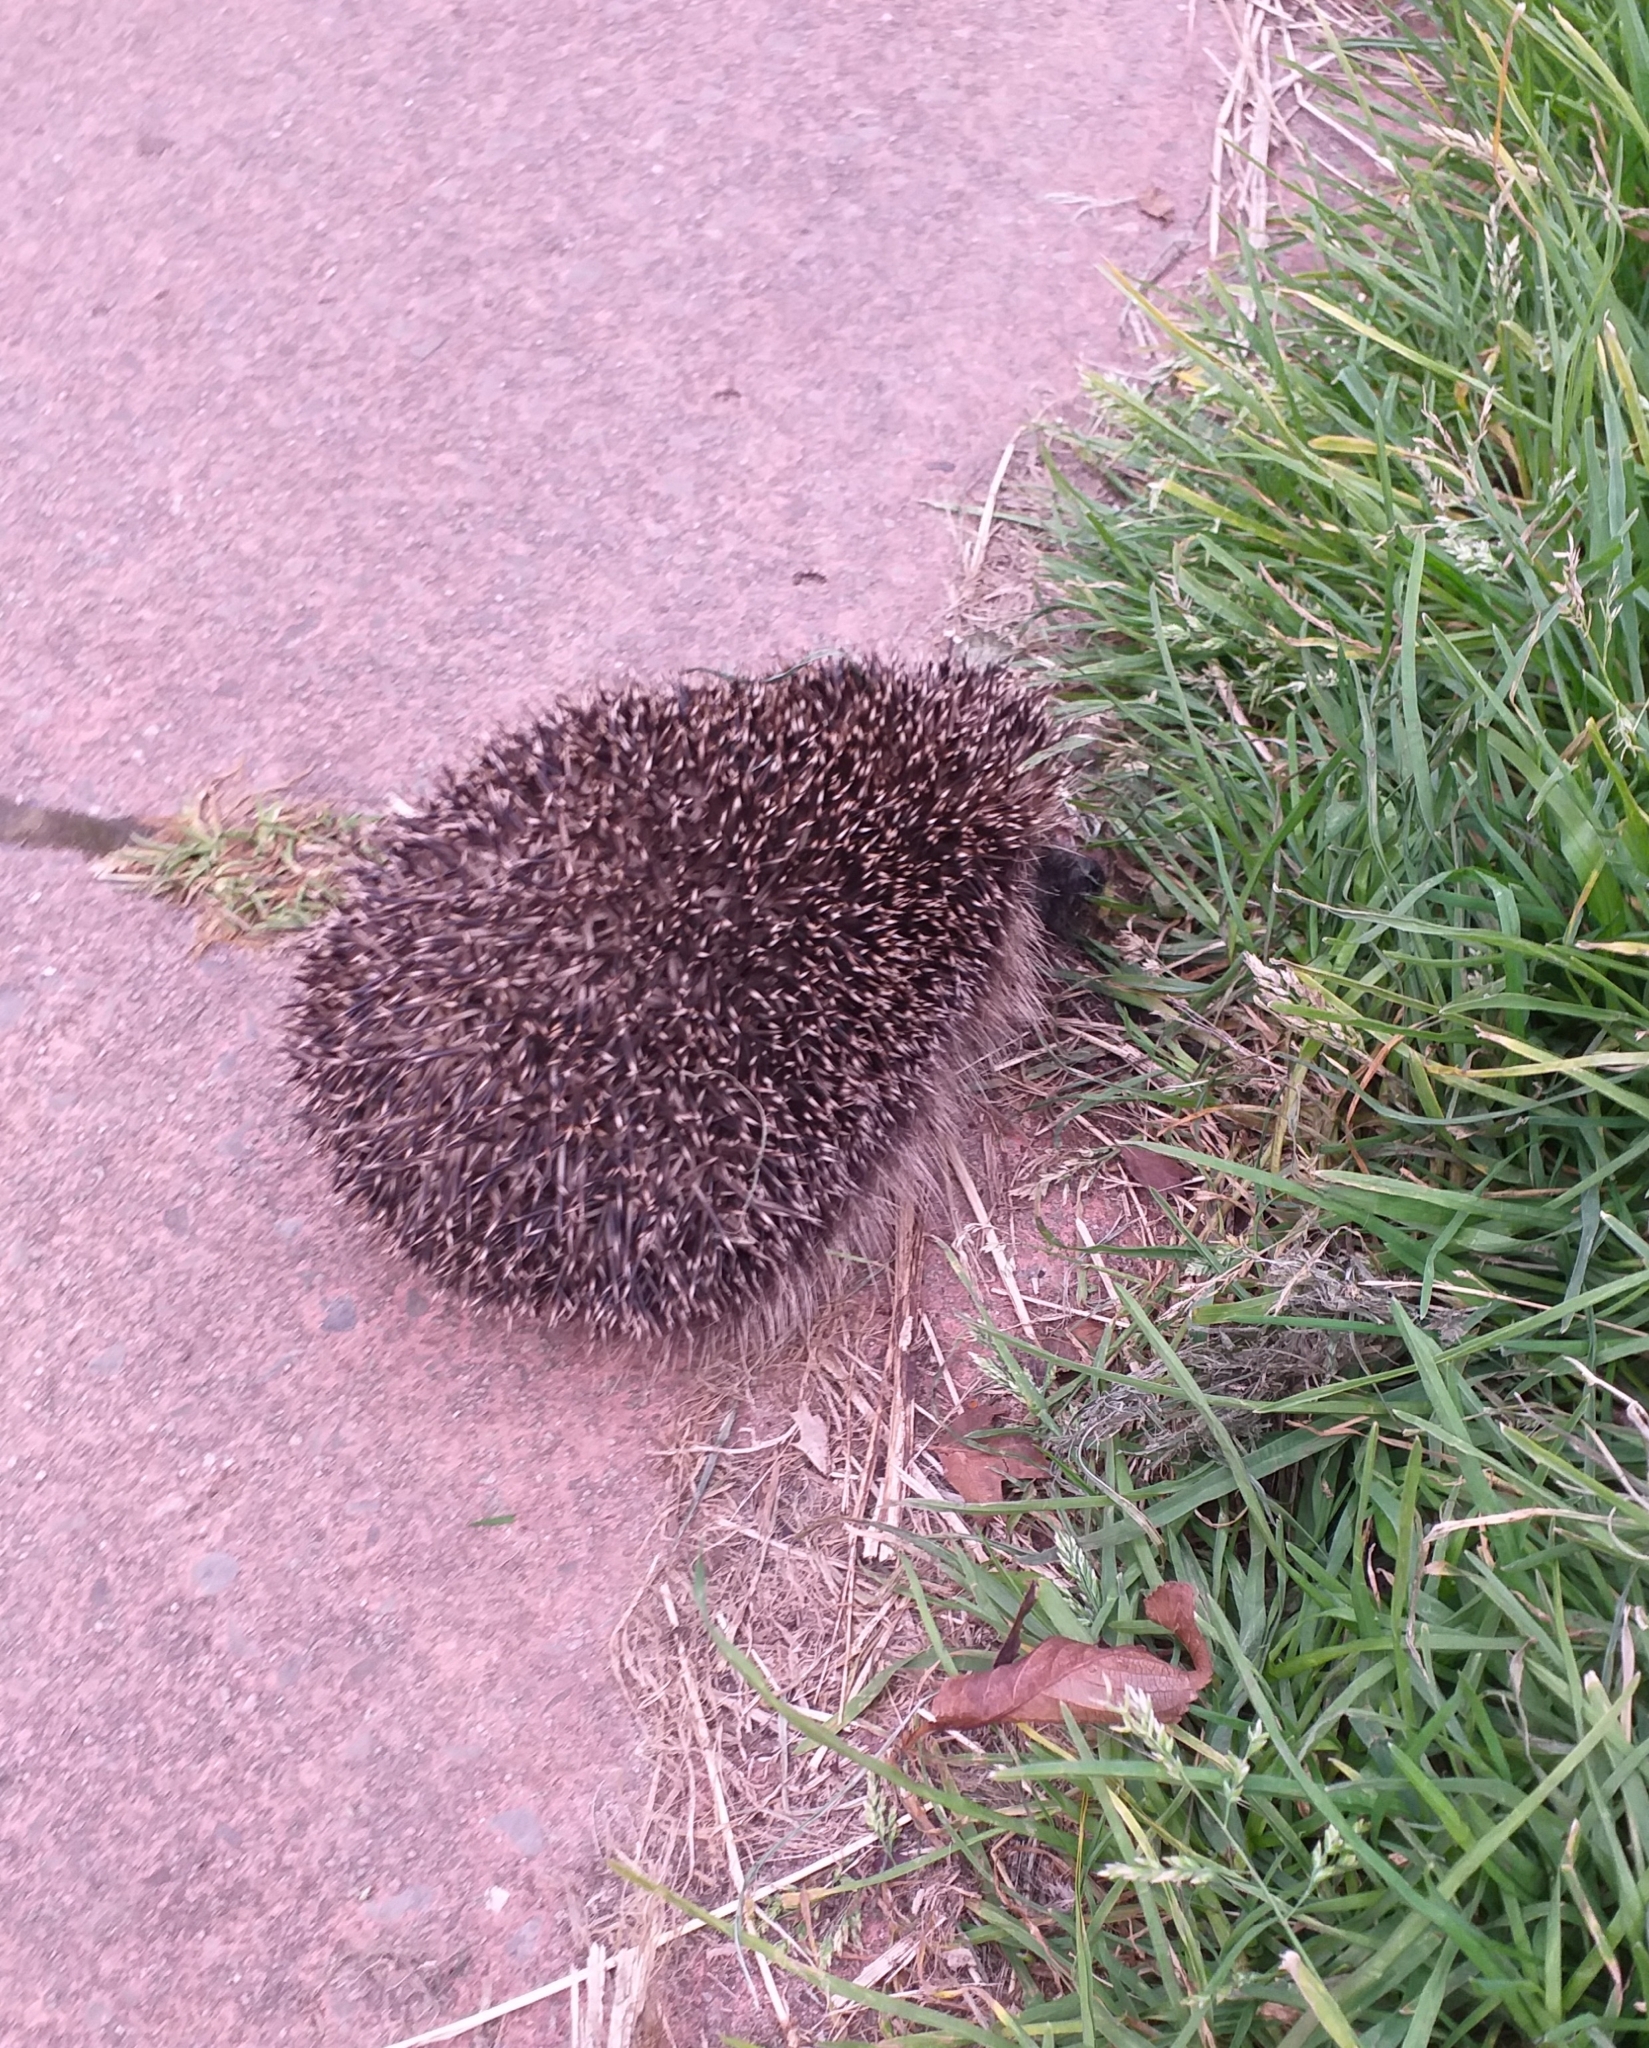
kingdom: Animalia
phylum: Chordata
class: Mammalia
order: Erinaceomorpha
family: Erinaceidae
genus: Erinaceus
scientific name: Erinaceus europaeus
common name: West european hedgehog
